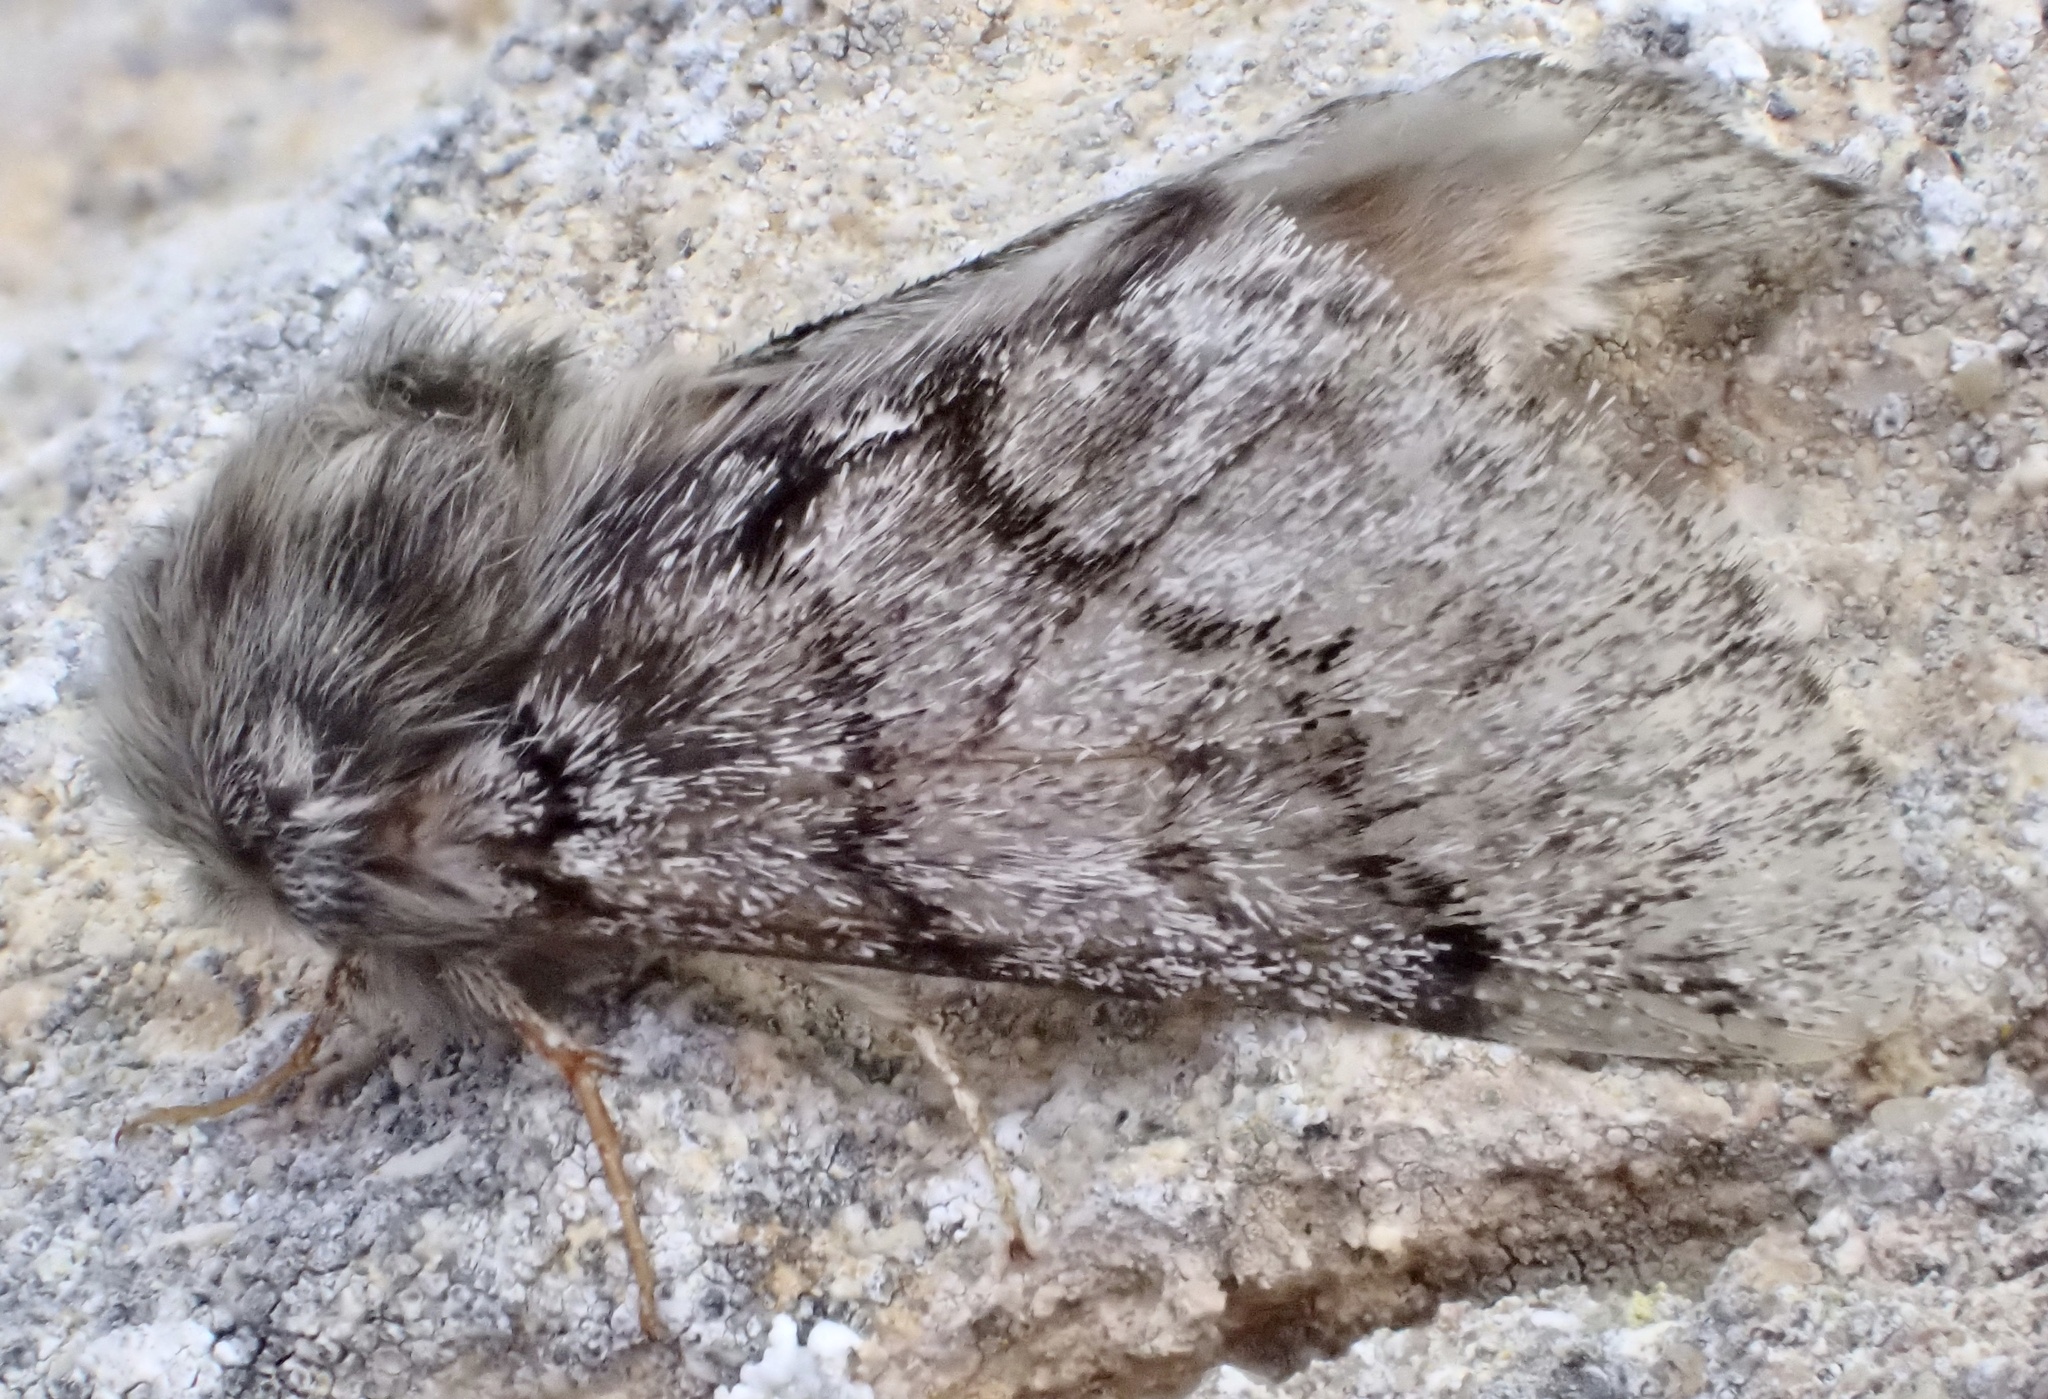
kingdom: Animalia
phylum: Arthropoda
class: Insecta
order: Lepidoptera
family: Notodontidae
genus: Thaumetopoea
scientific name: Thaumetopoea pityocampa
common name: Pine processionary
